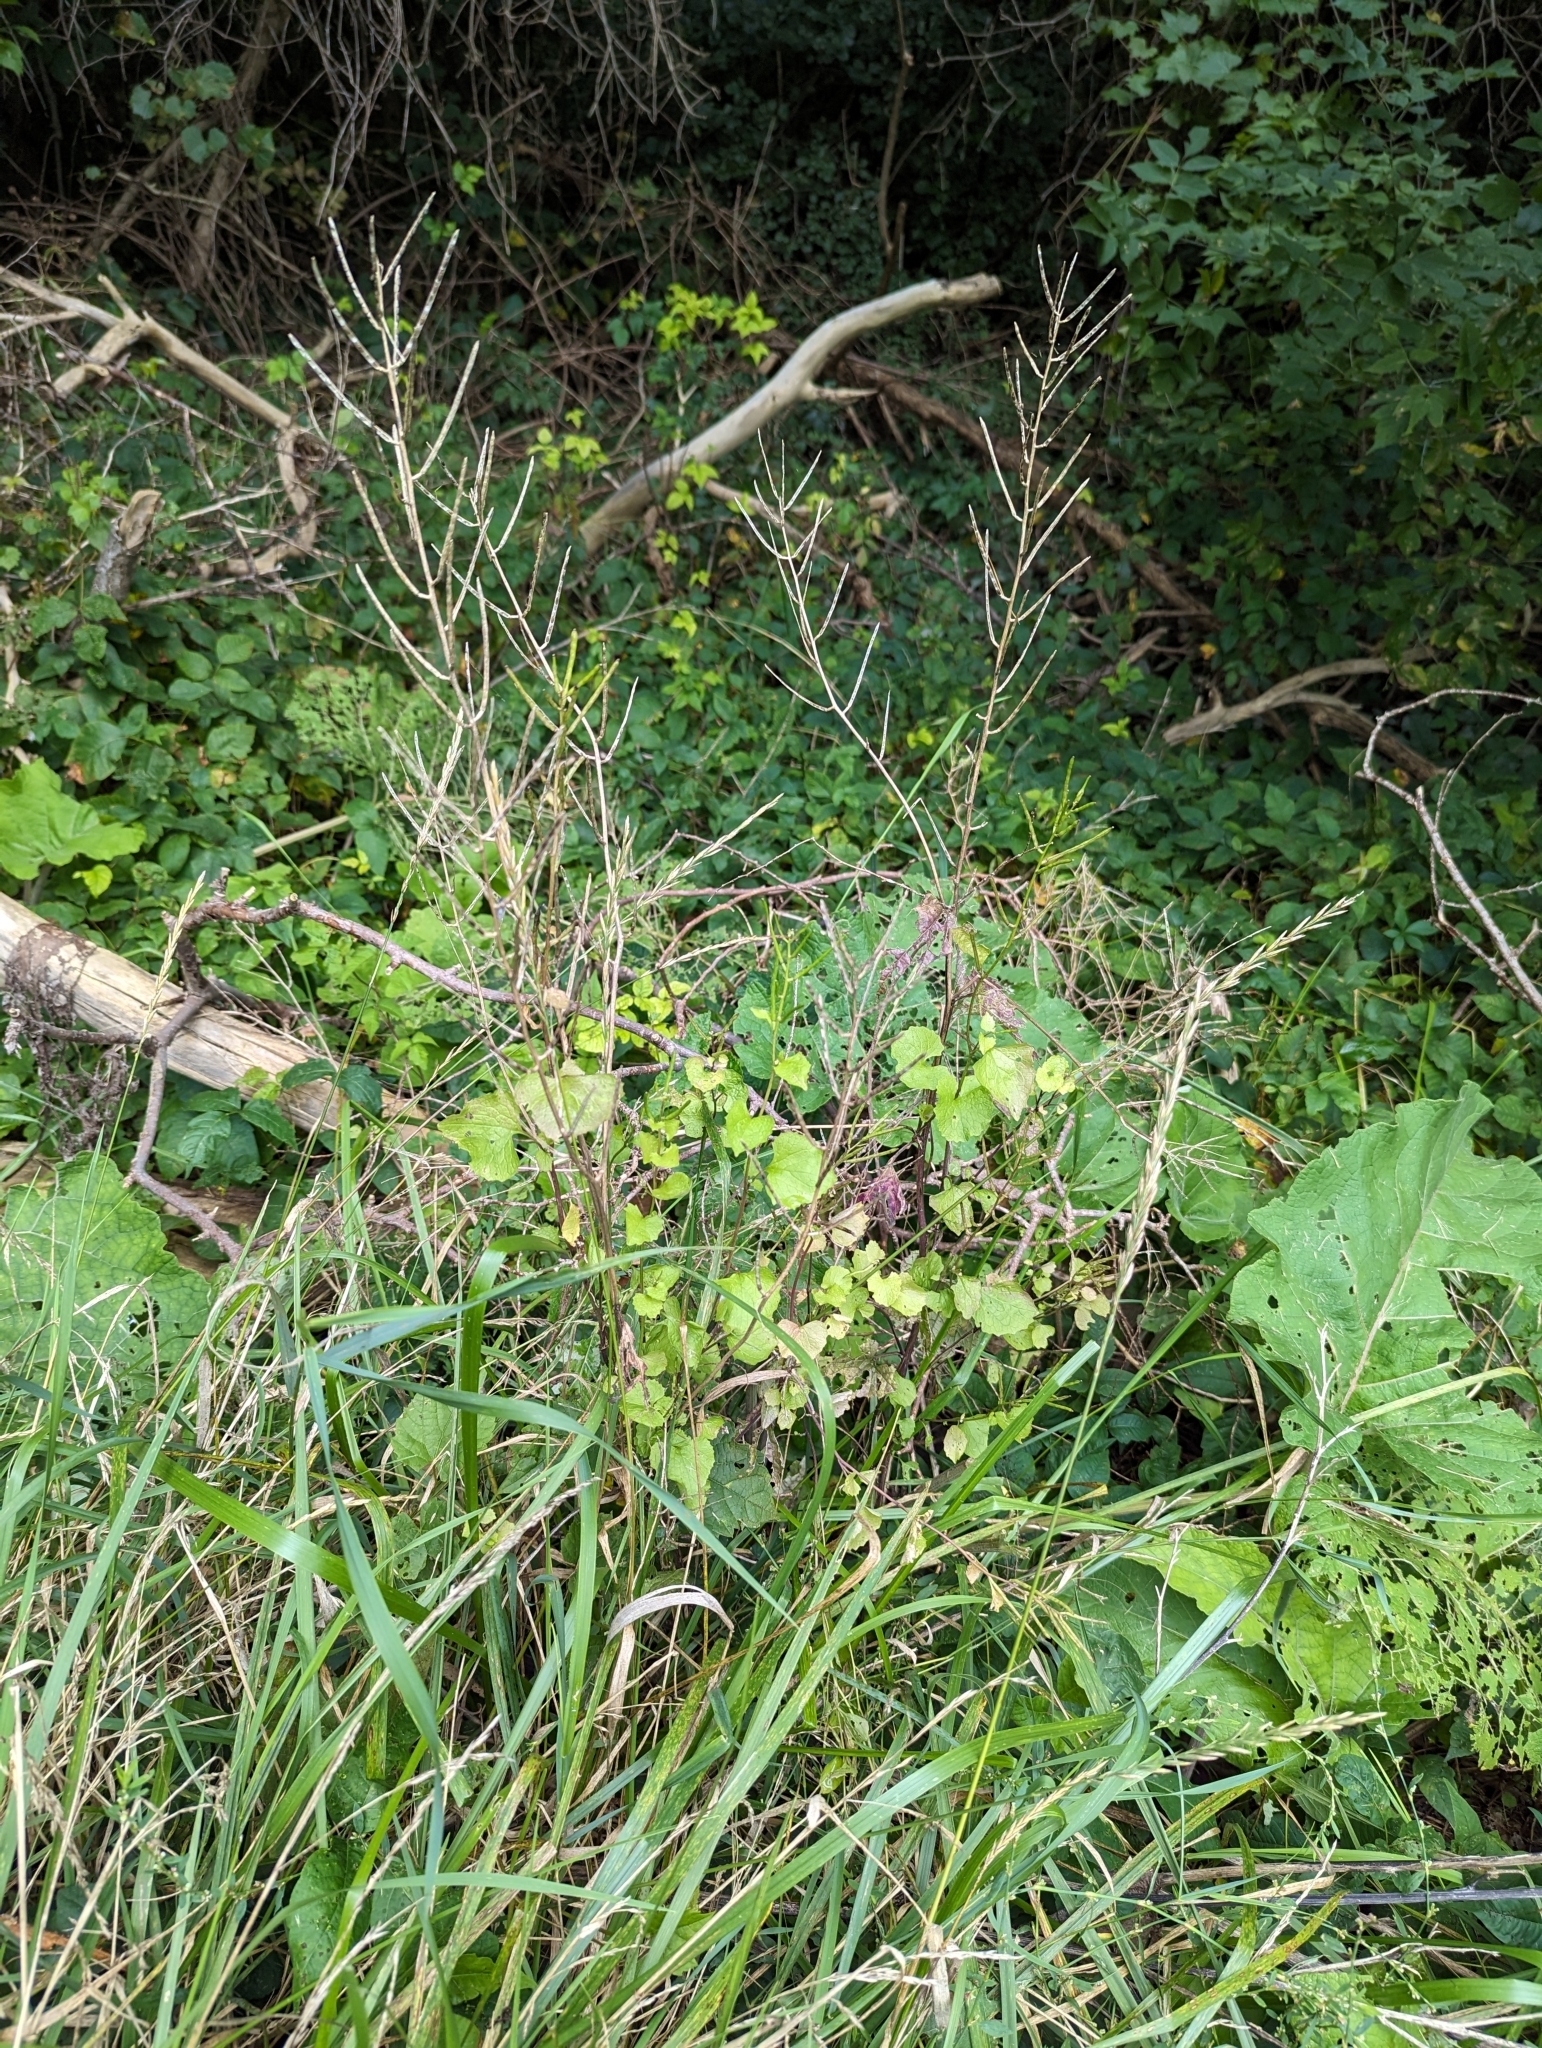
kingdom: Plantae
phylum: Tracheophyta
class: Magnoliopsida
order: Brassicales
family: Brassicaceae
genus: Alliaria
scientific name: Alliaria petiolata
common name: Garlic mustard
